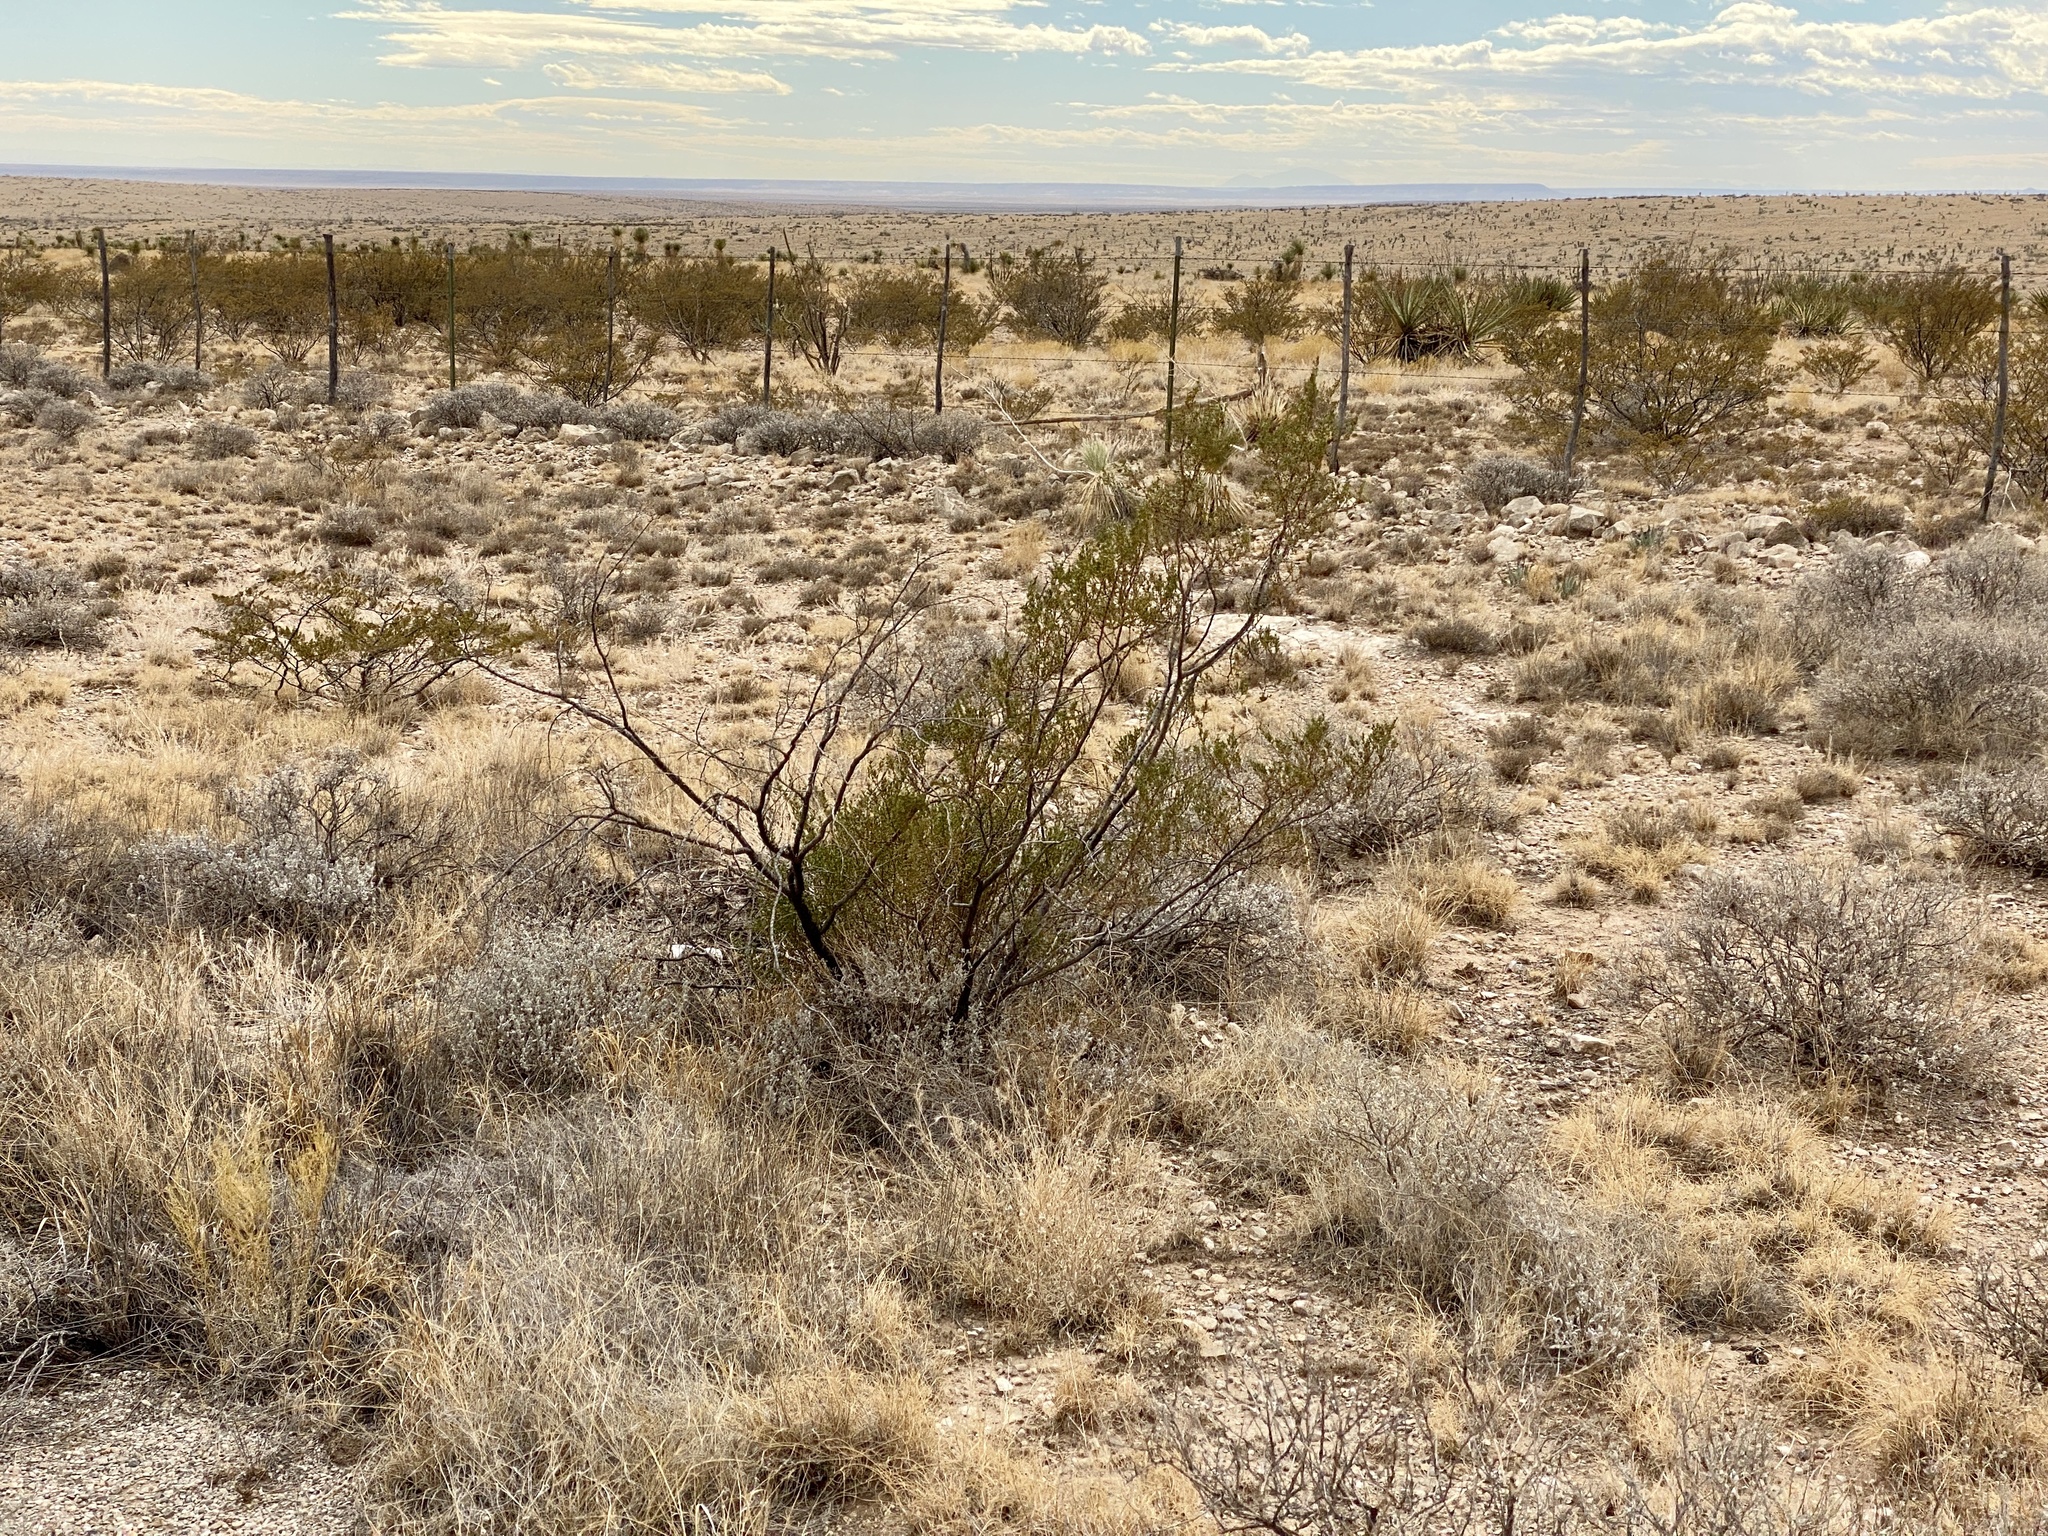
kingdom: Plantae
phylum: Tracheophyta
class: Magnoliopsida
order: Zygophyllales
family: Zygophyllaceae
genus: Larrea
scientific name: Larrea tridentata
